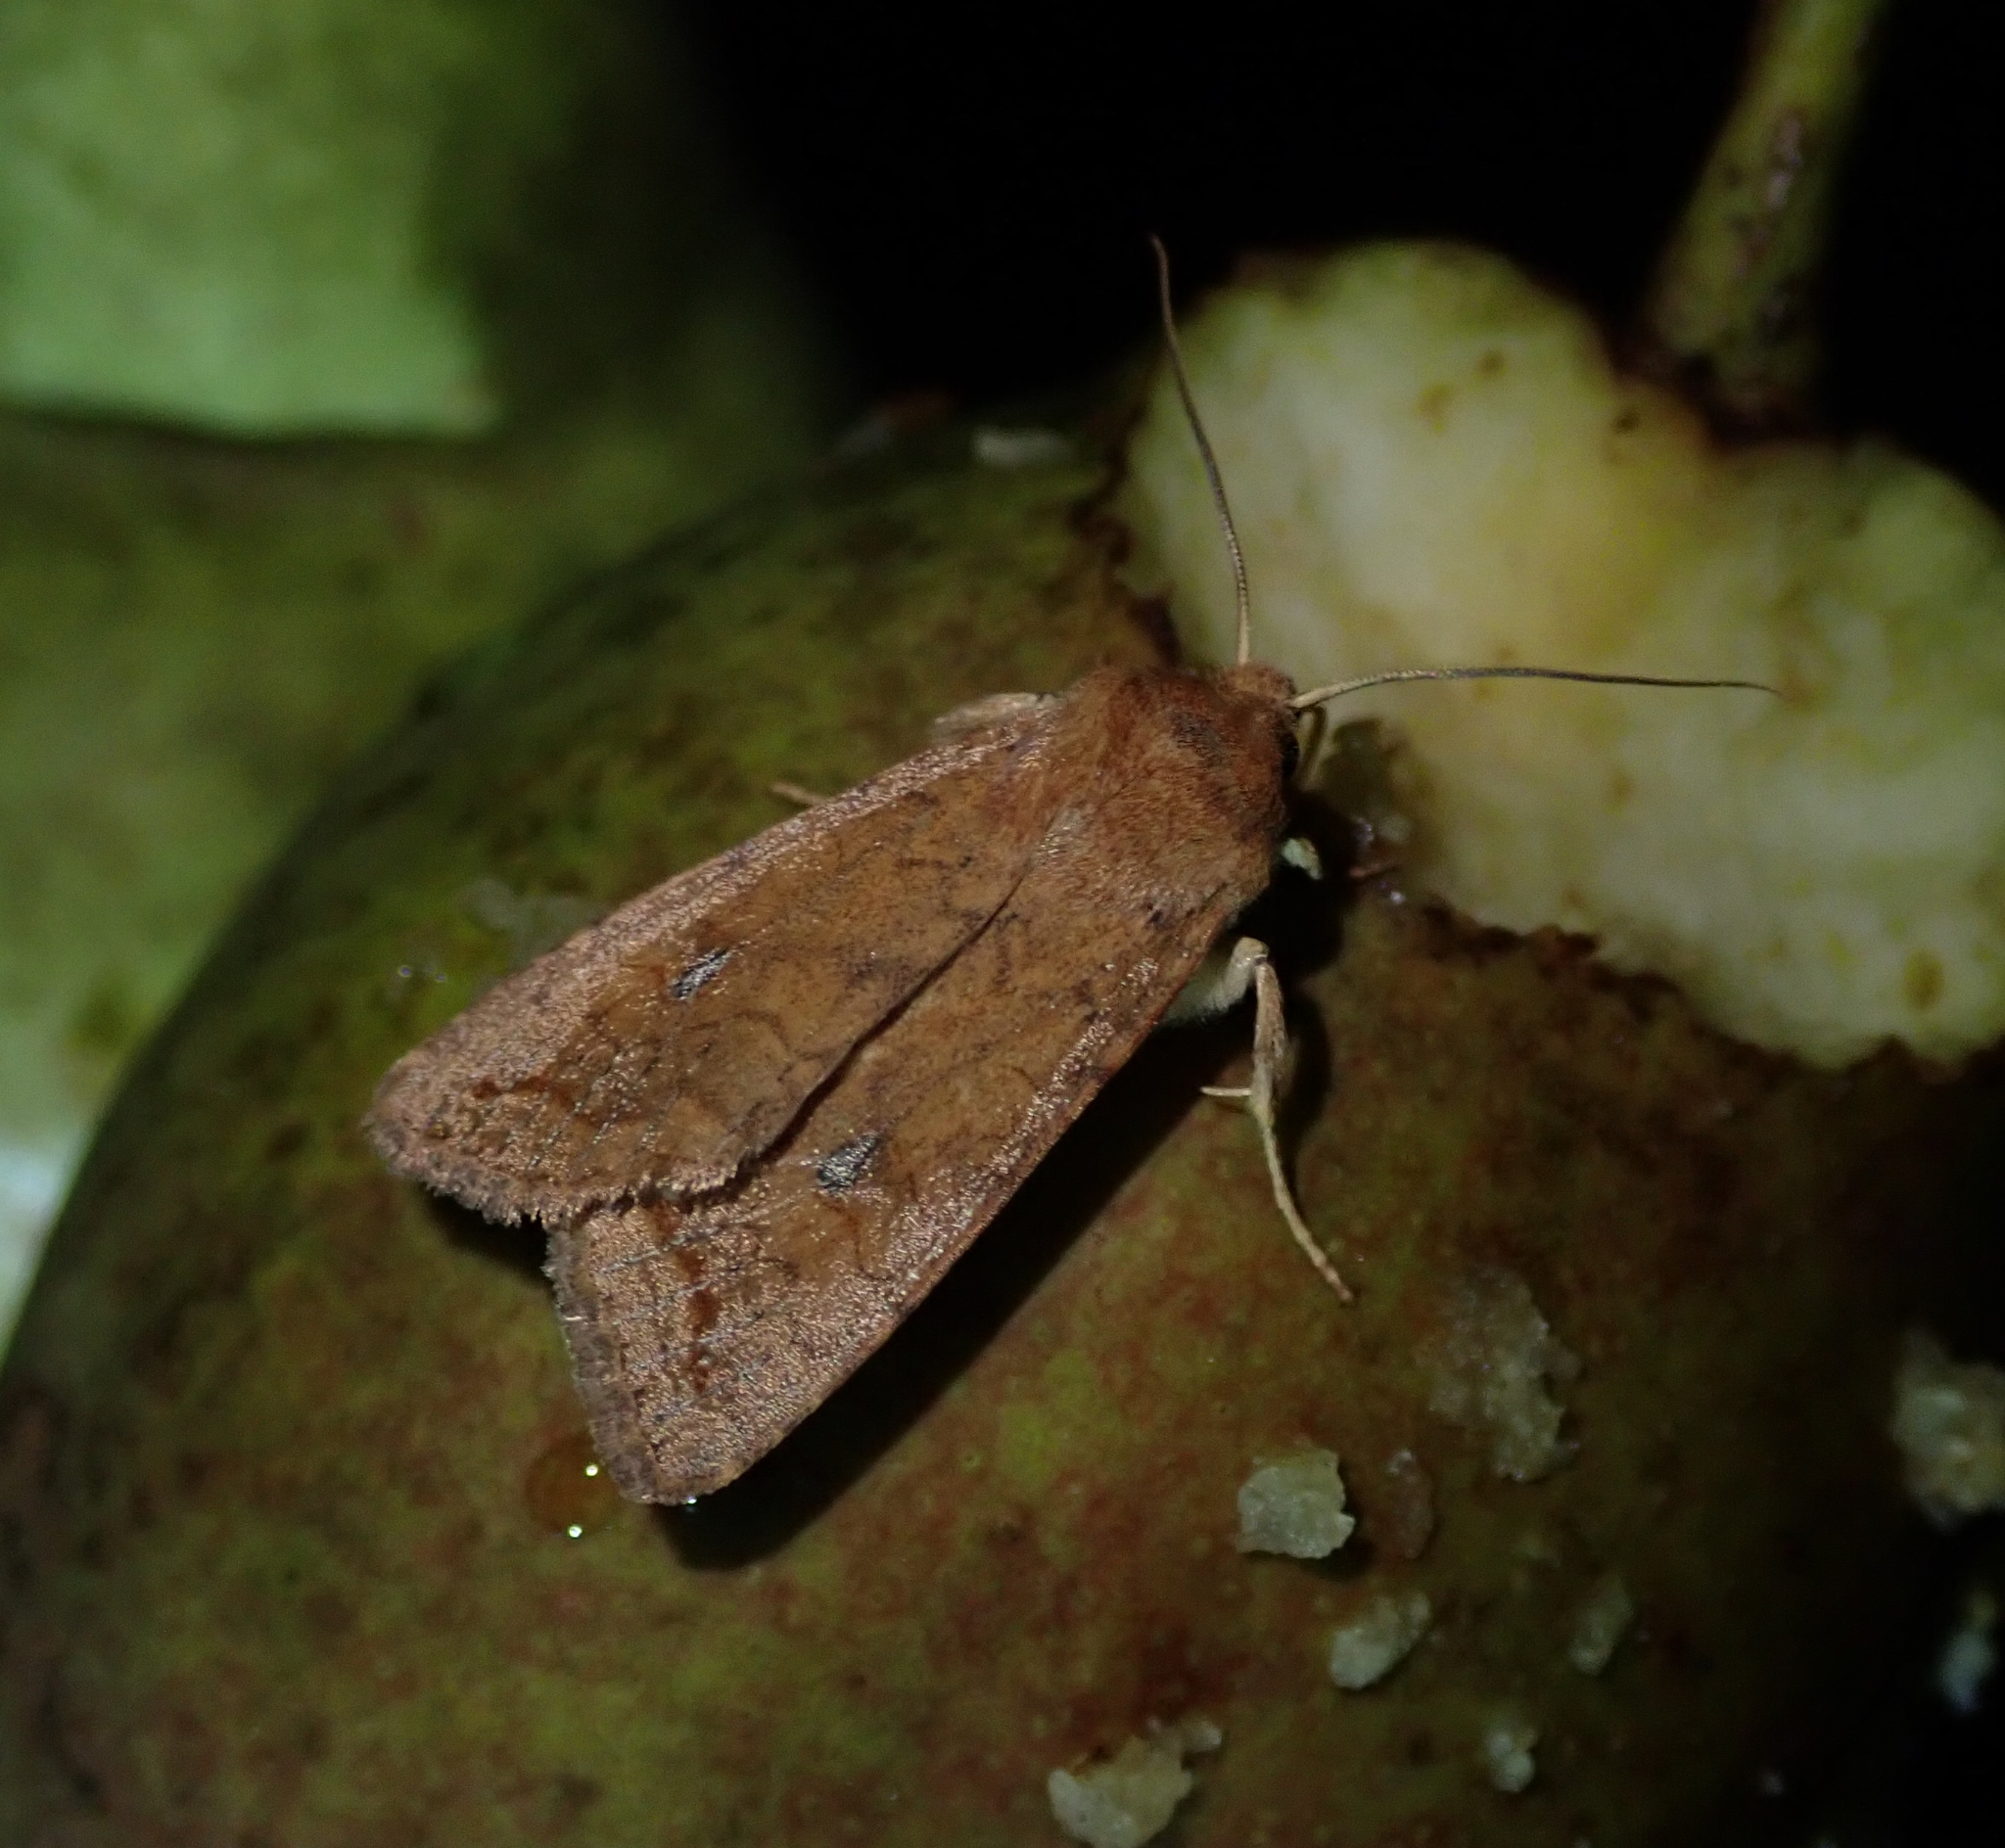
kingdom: Animalia
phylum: Arthropoda
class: Insecta
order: Lepidoptera
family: Noctuidae
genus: Sunira
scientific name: Sunira circellaris
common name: Brick
